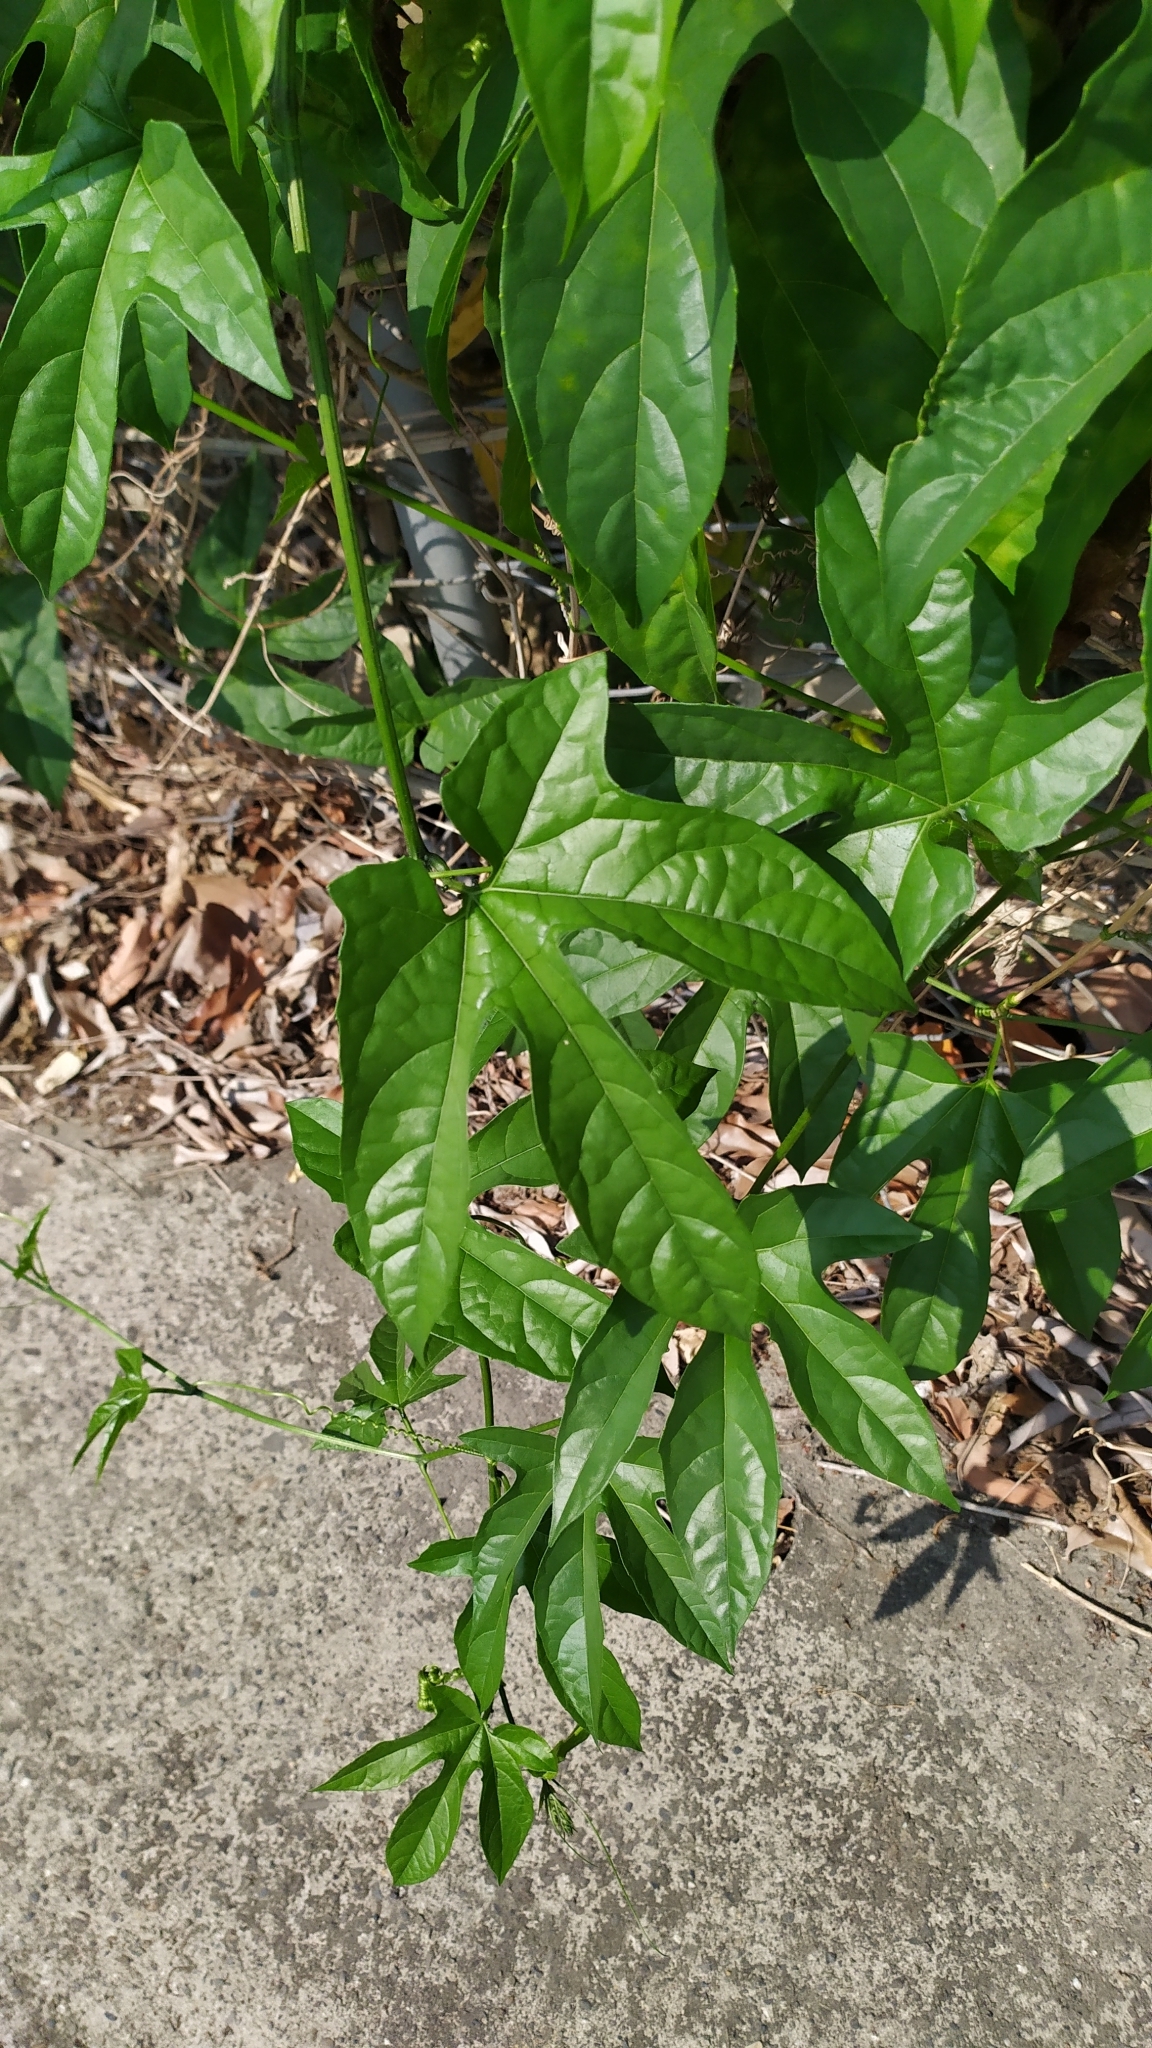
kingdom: Plantae
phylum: Tracheophyta
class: Magnoliopsida
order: Cucurbitales
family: Cucurbitaceae
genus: Momordica
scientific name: Momordica cochinchinensis
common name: Chinese bitter-cucumber
